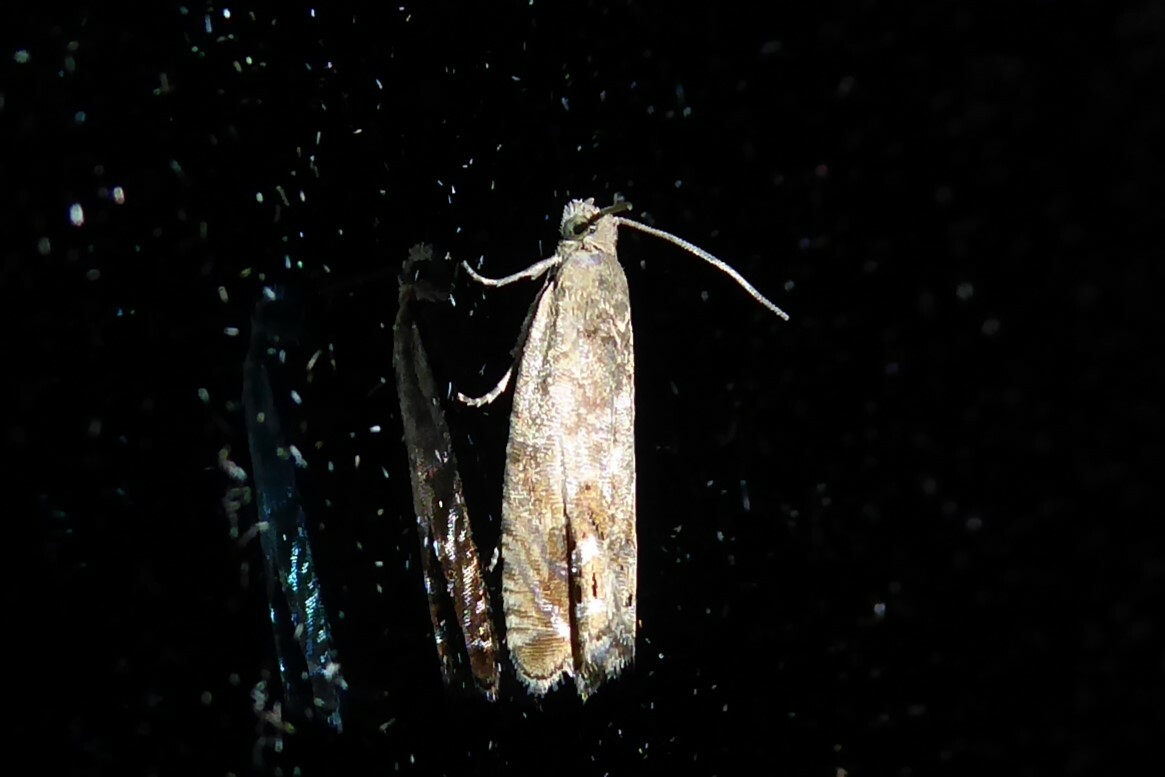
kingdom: Animalia
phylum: Arthropoda
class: Insecta
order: Lepidoptera
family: Tortricidae
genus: Cydia
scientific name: Cydia succedana
